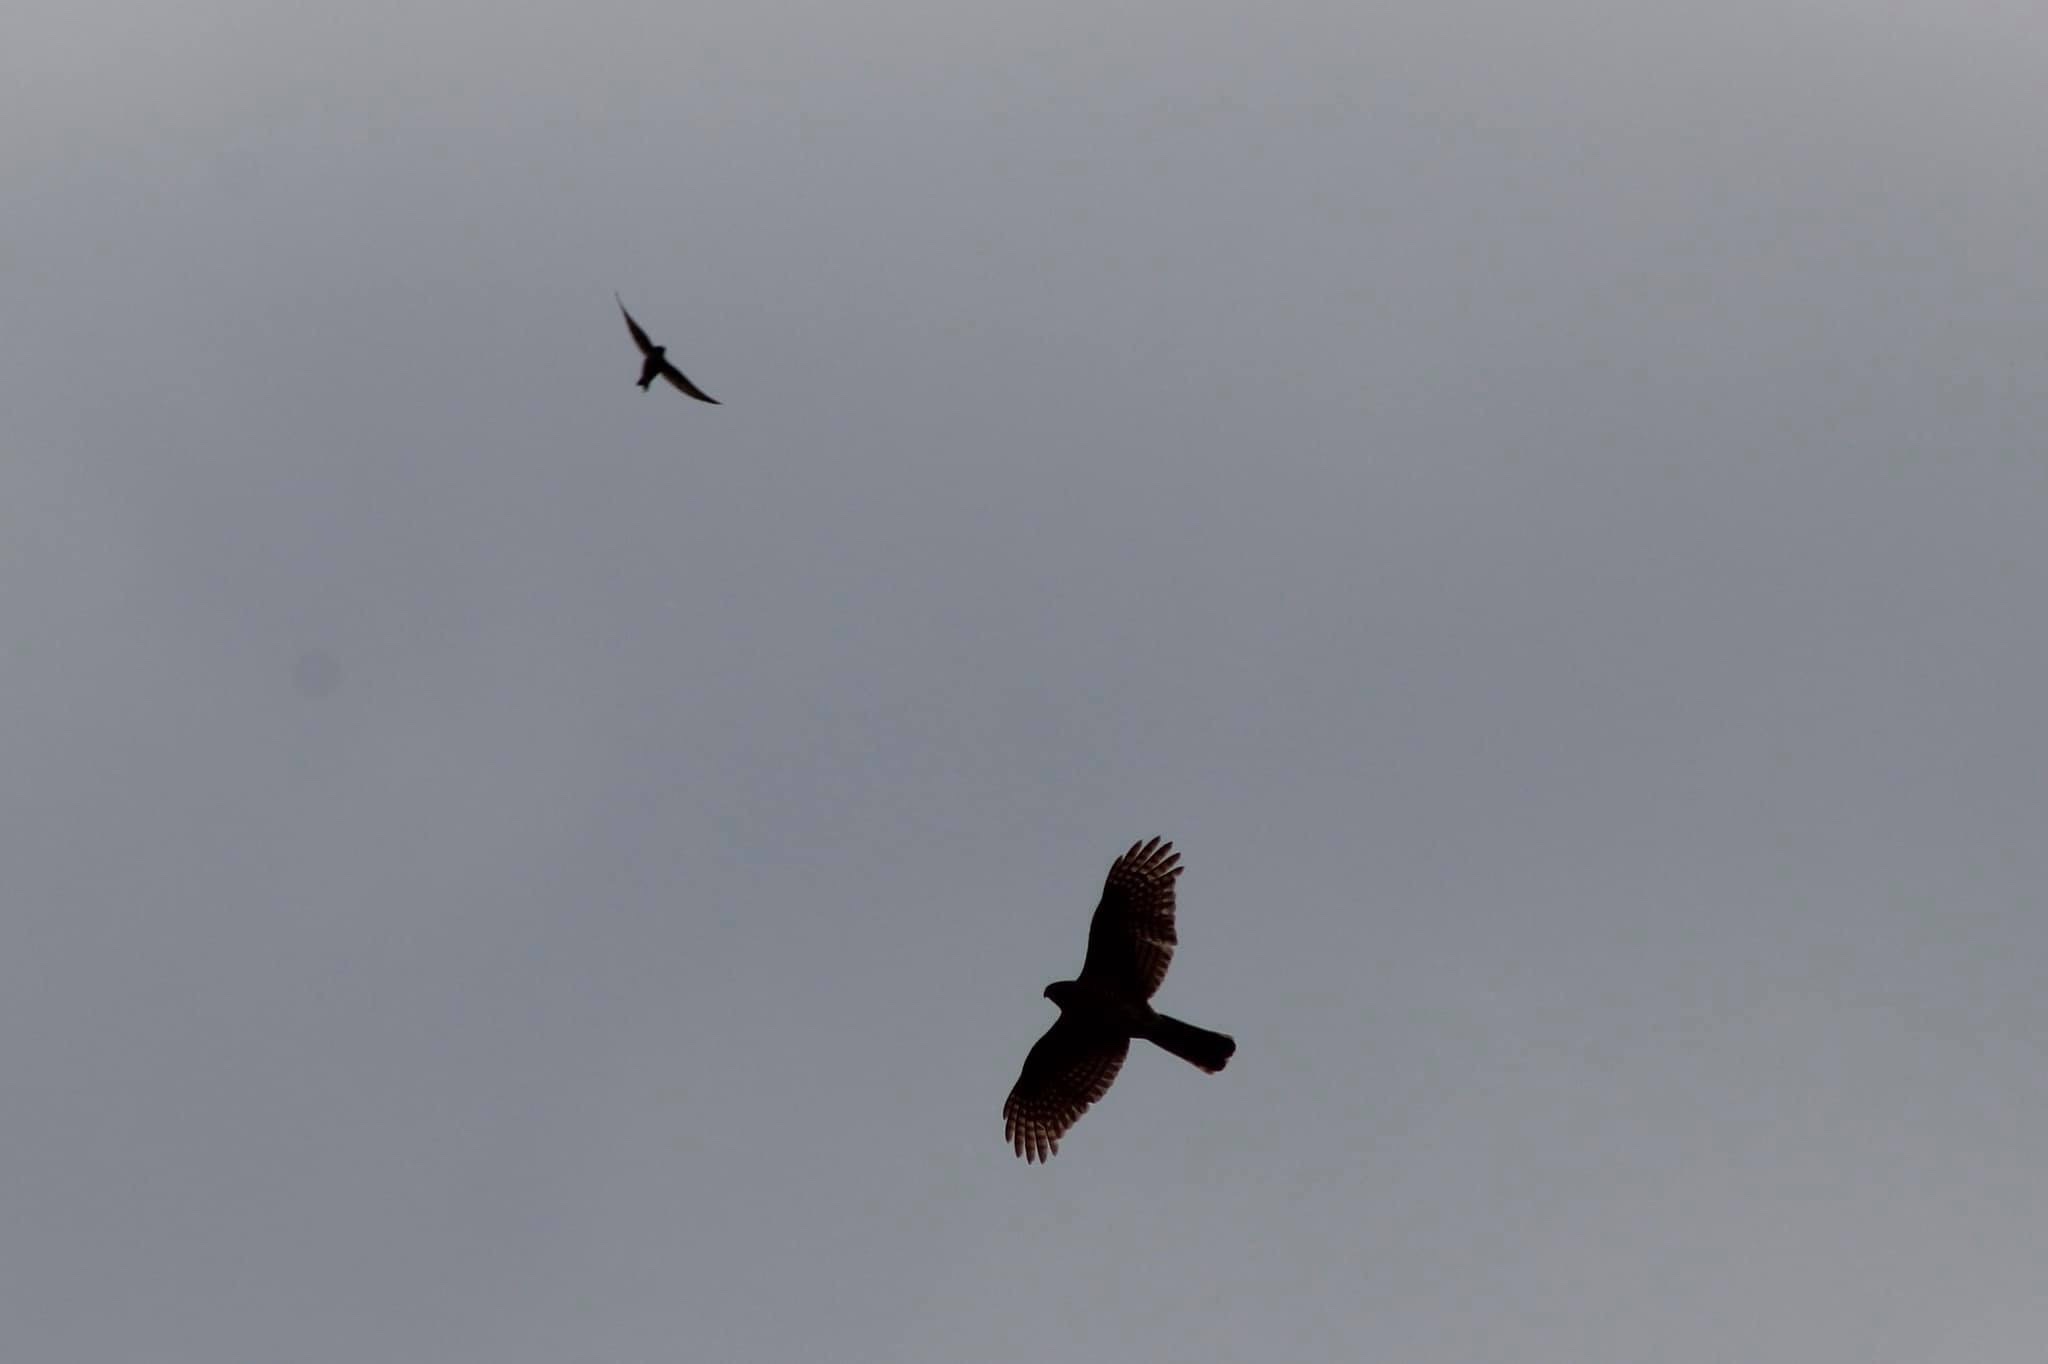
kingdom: Animalia
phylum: Chordata
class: Aves
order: Accipitriformes
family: Accipitridae
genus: Accipiter
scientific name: Accipiter striatus
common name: Sharp-shinned hawk
